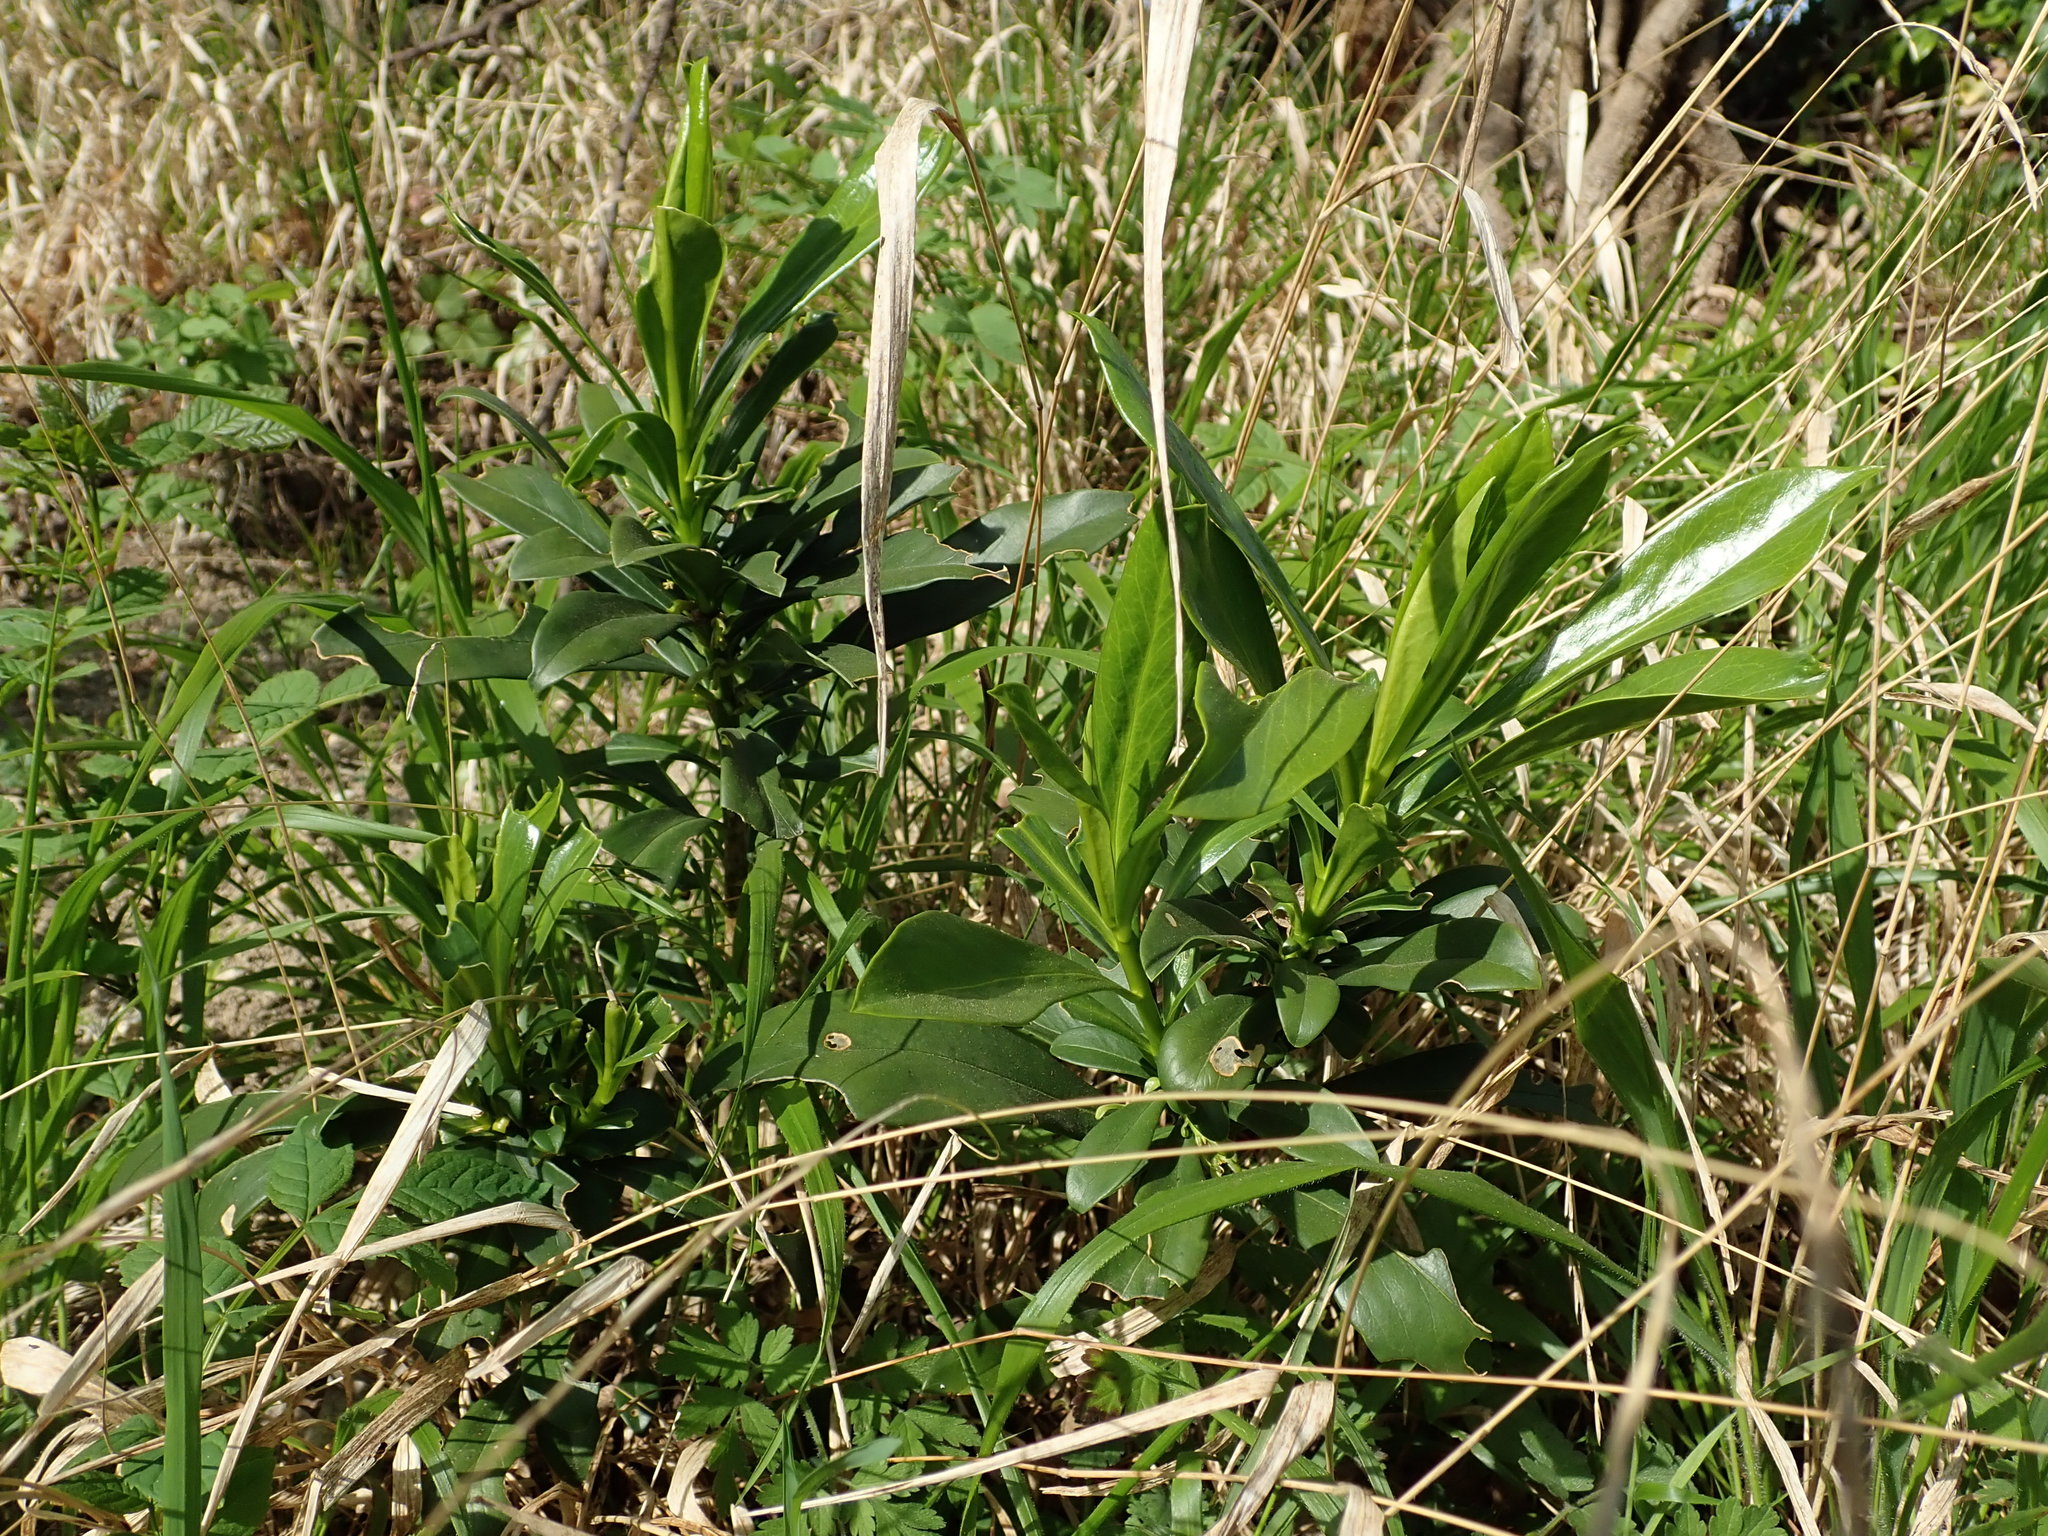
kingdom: Plantae
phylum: Tracheophyta
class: Magnoliopsida
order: Malvales
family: Thymelaeaceae
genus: Daphne
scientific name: Daphne laureola
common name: Spurge-laurel
